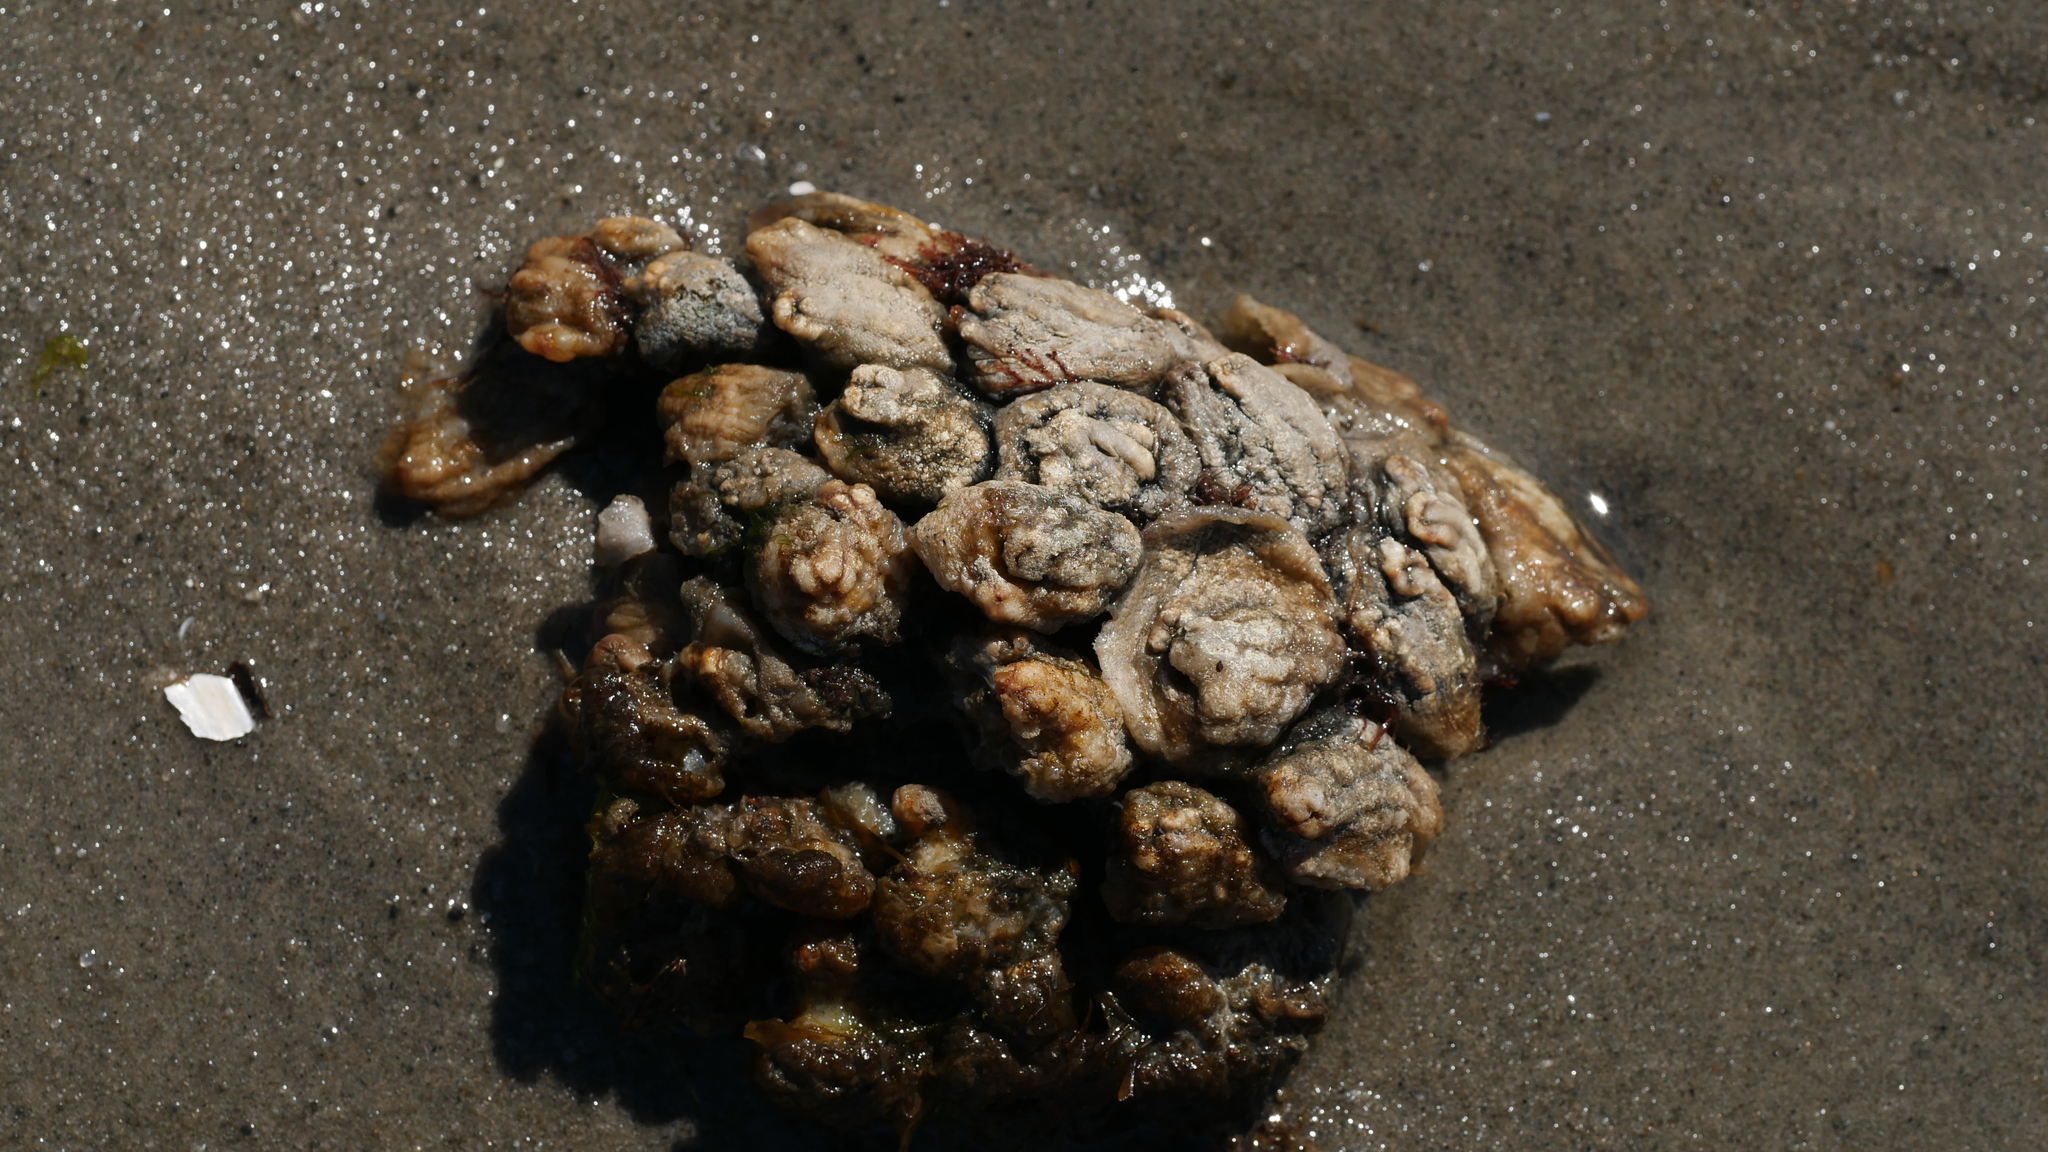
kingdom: Animalia
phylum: Chordata
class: Ascidiacea
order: Stolidobranchia
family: Styelidae
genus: Styela
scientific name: Styela plicata
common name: Pleated tunicate
